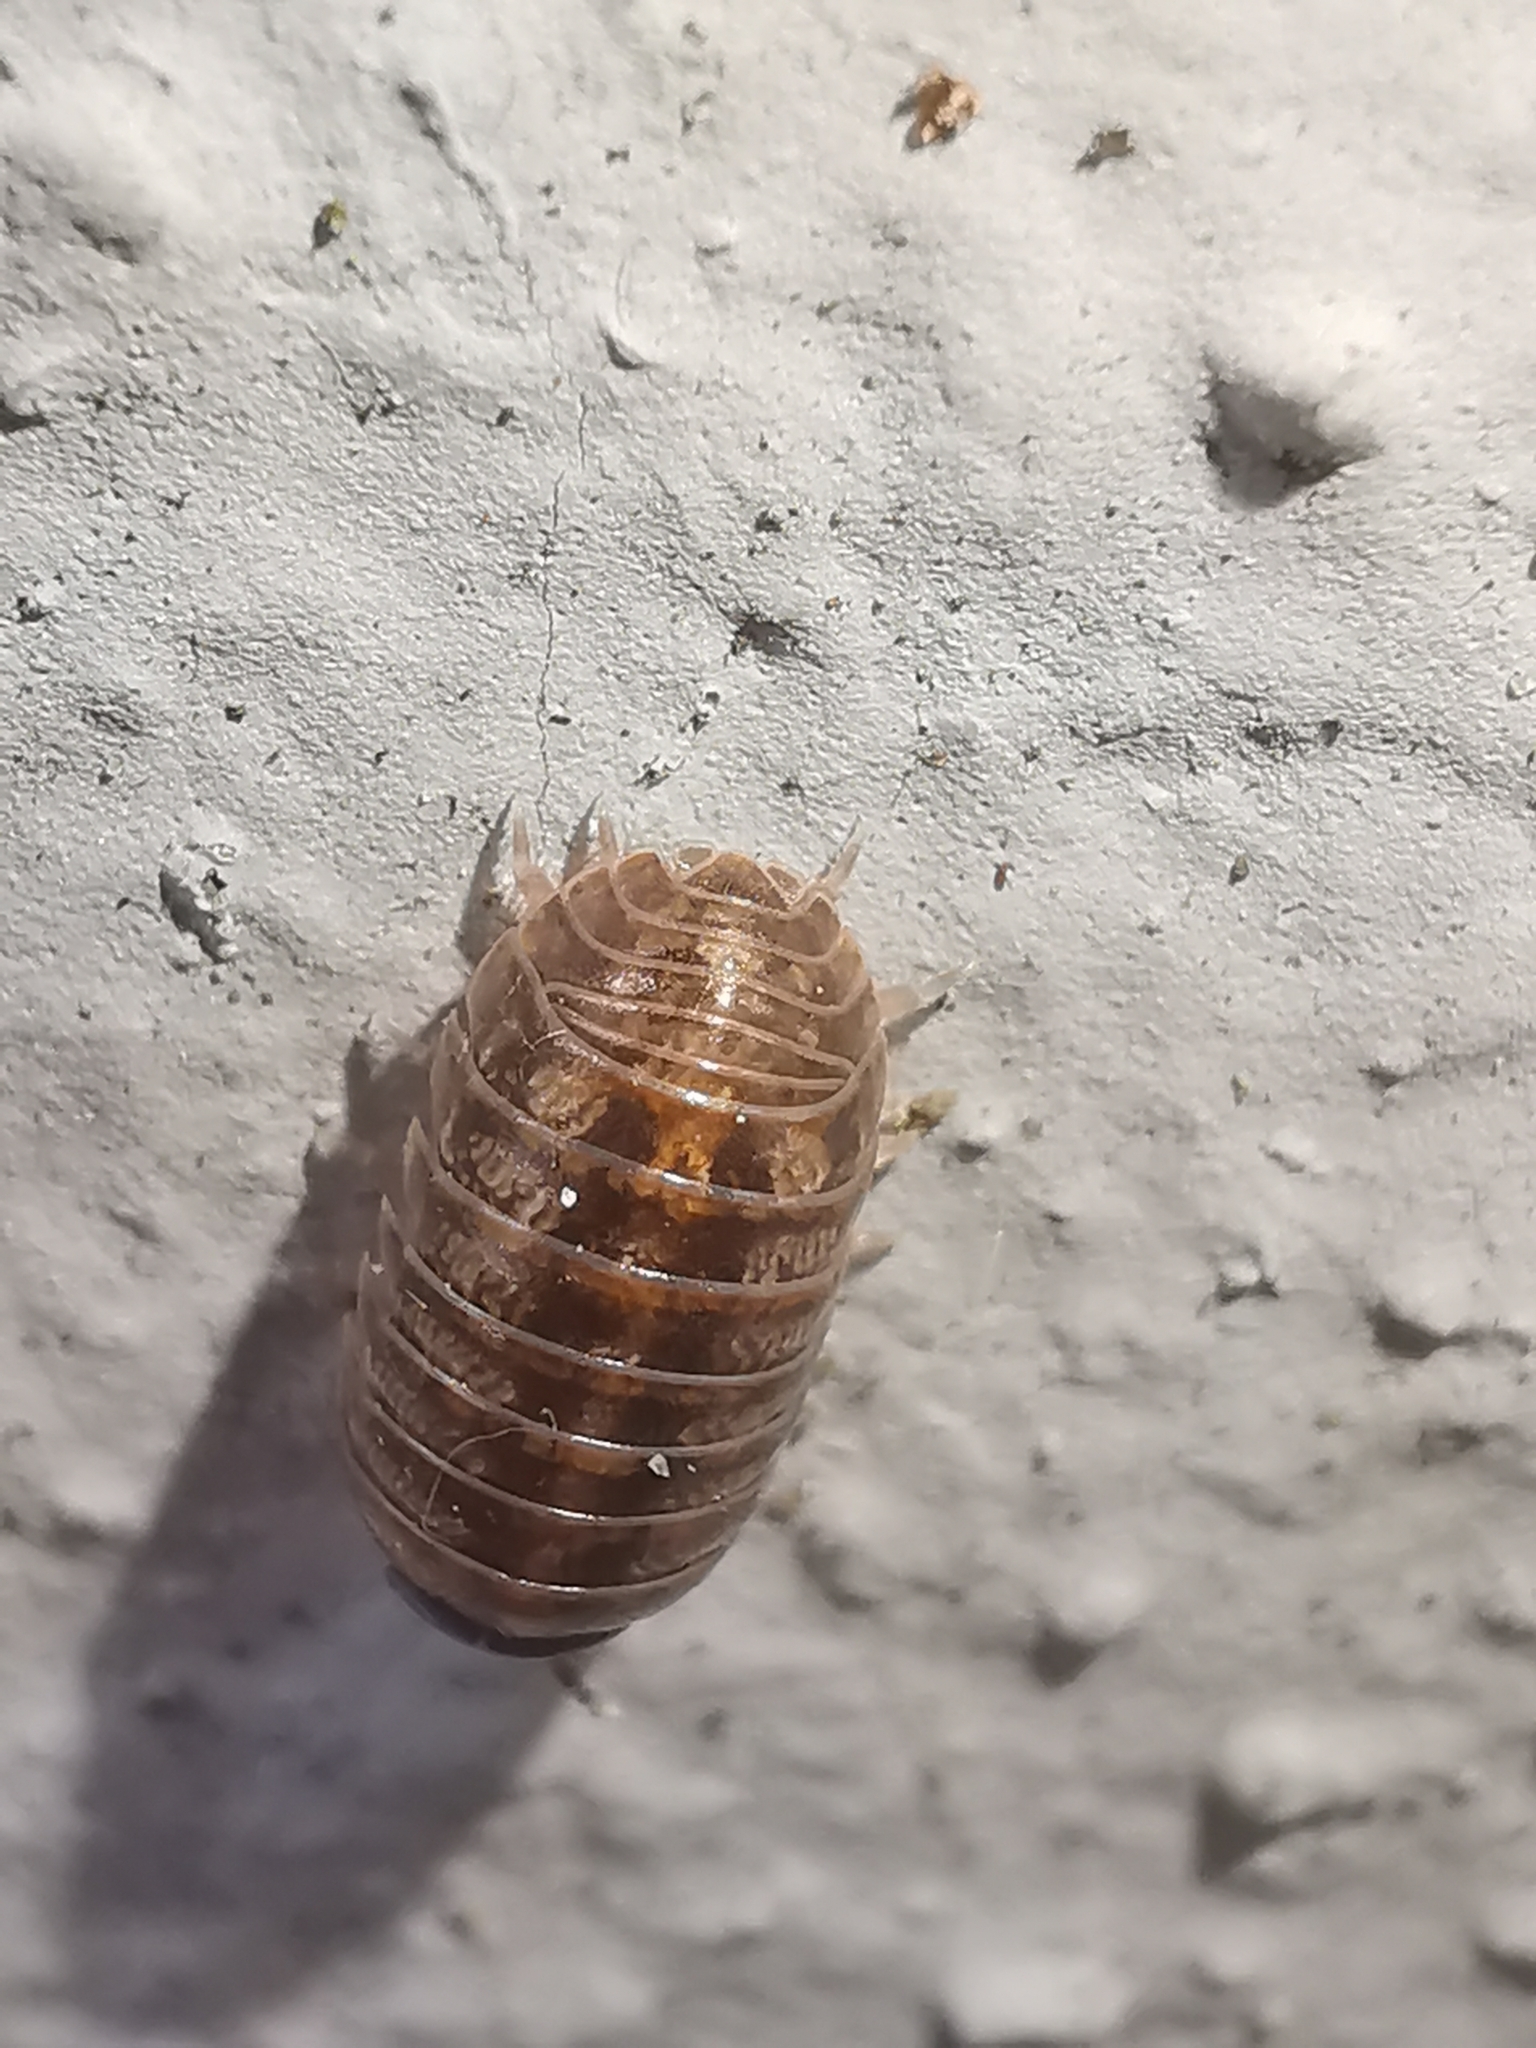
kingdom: Animalia
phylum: Arthropoda
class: Malacostraca
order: Isopoda
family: Armadillidiidae
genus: Armadillidium
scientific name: Armadillidium vulgare
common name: Common pill woodlouse
